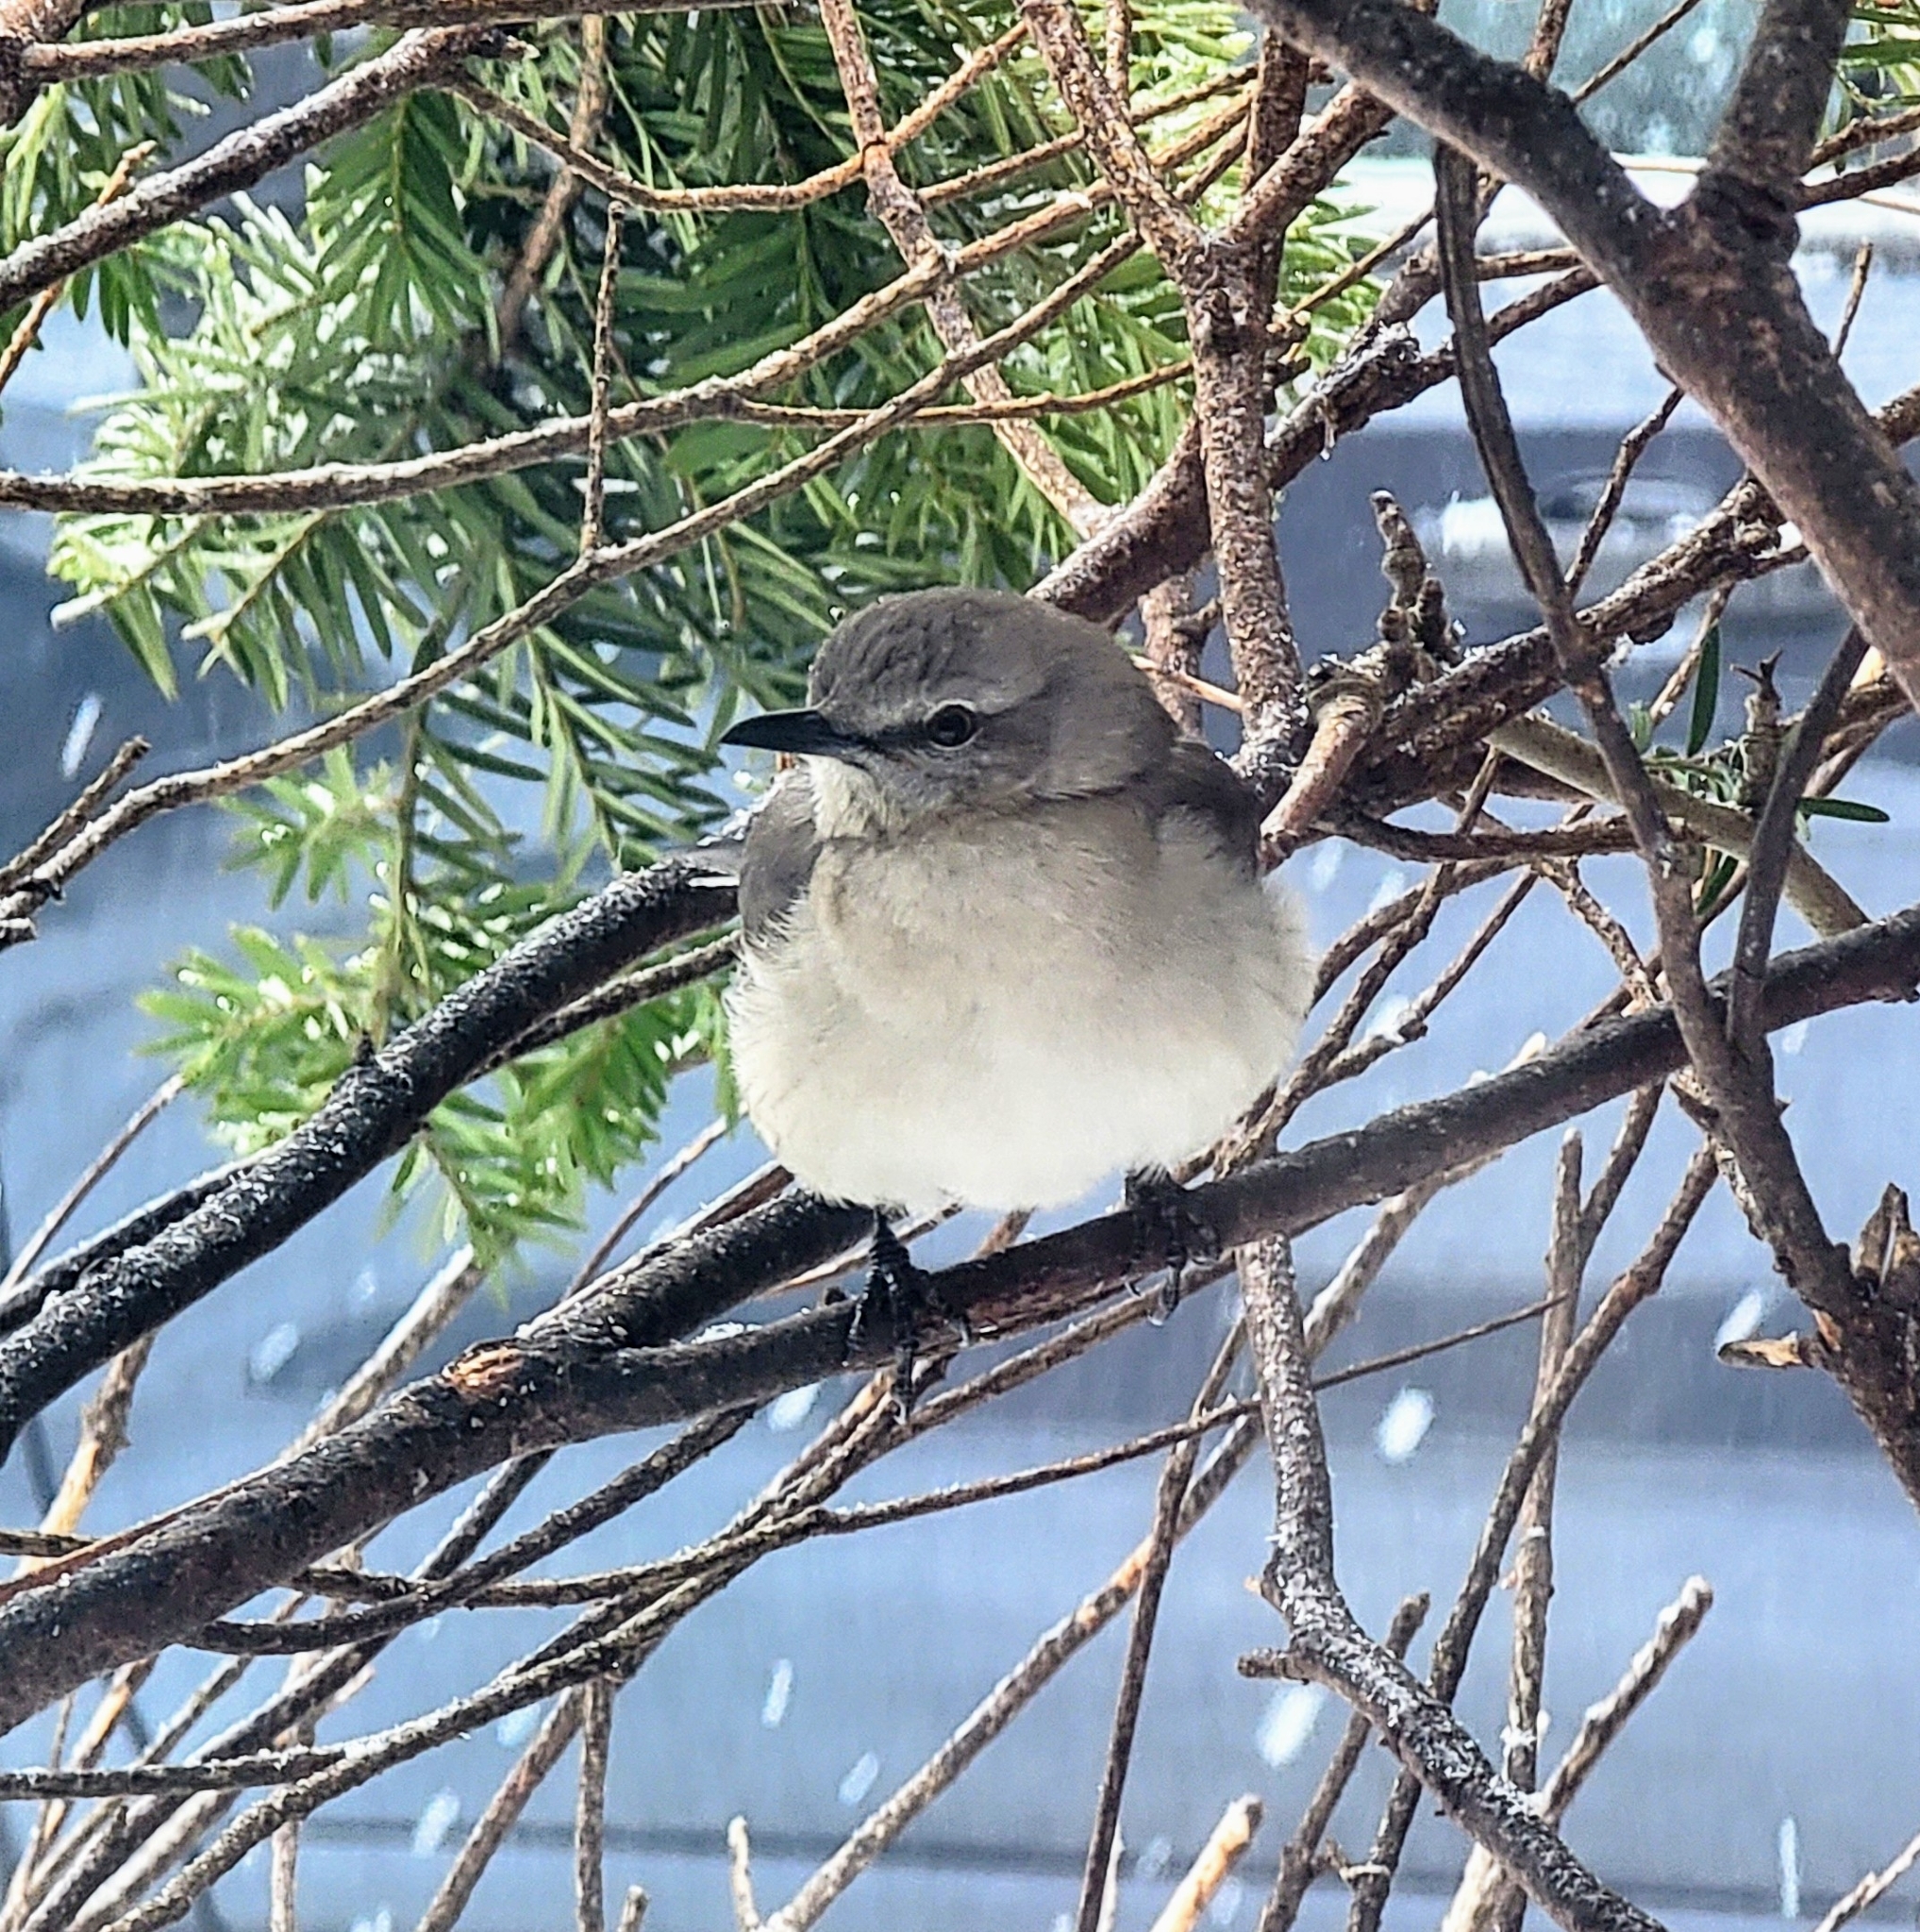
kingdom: Animalia
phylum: Chordata
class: Aves
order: Passeriformes
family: Mimidae
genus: Mimus
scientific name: Mimus polyglottos
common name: Northern mockingbird
